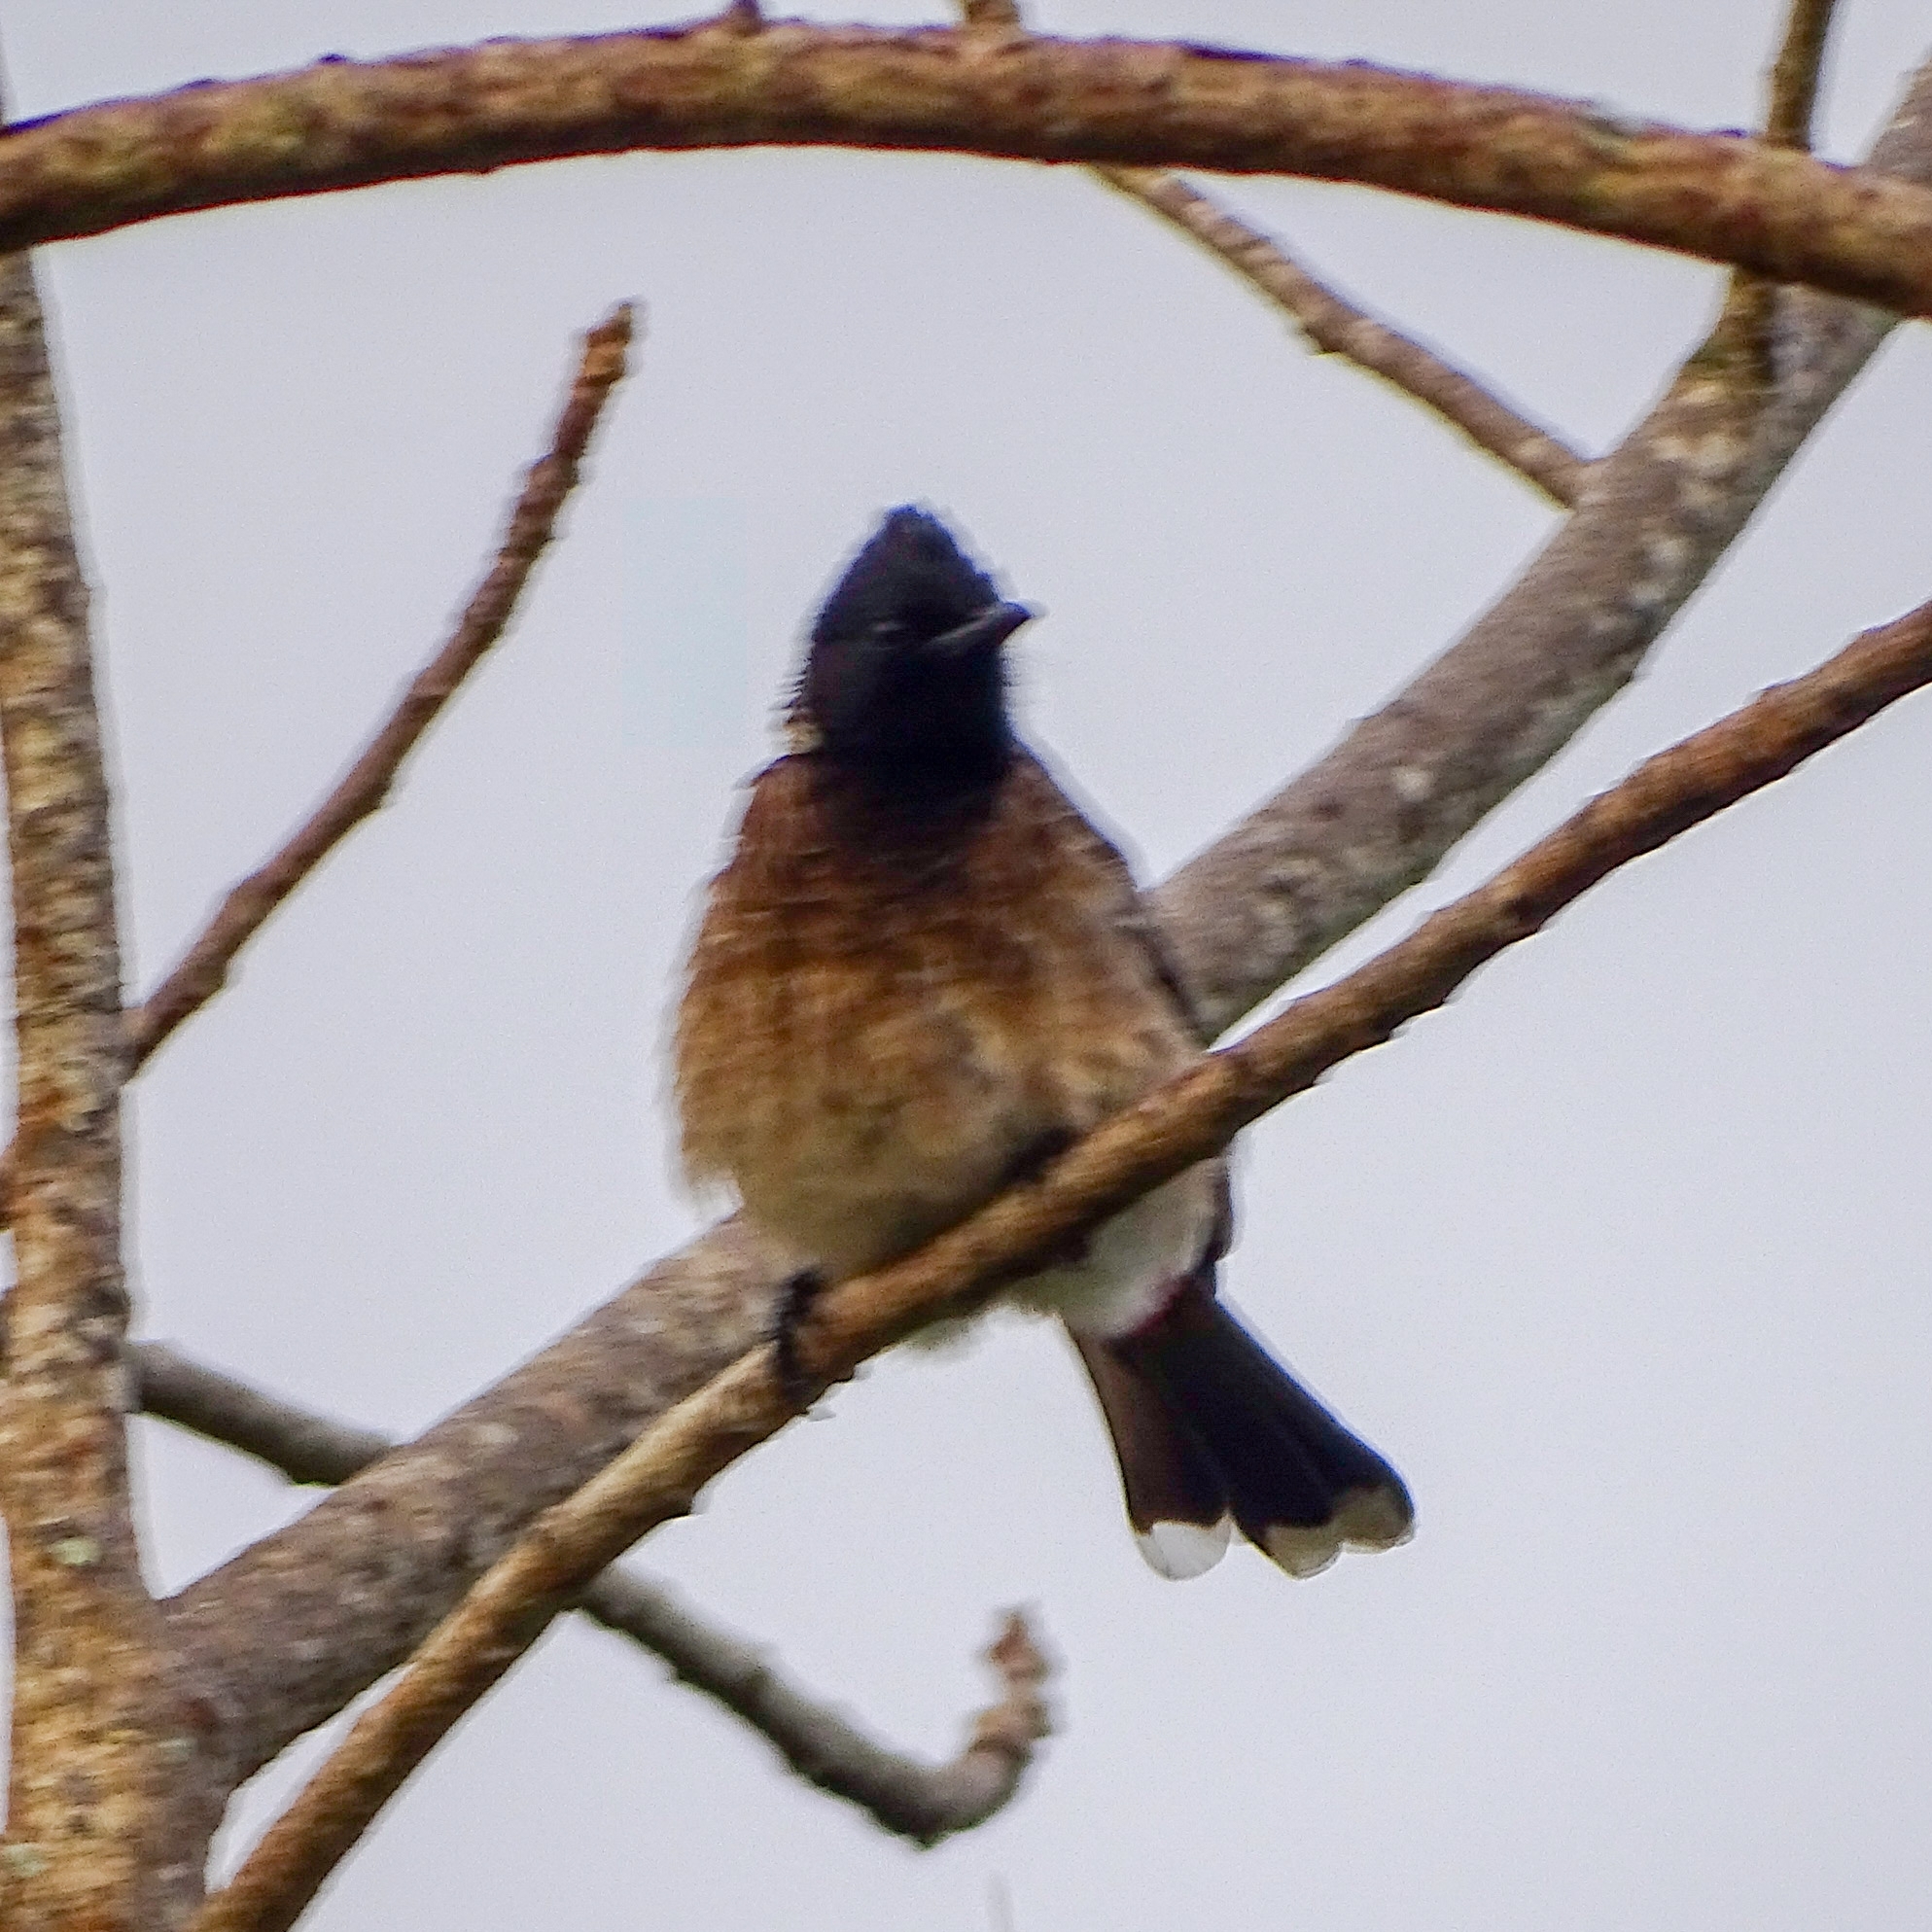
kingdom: Animalia
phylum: Chordata
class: Aves
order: Passeriformes
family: Pycnonotidae
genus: Pycnonotus
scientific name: Pycnonotus cafer
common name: Red-vented bulbul
